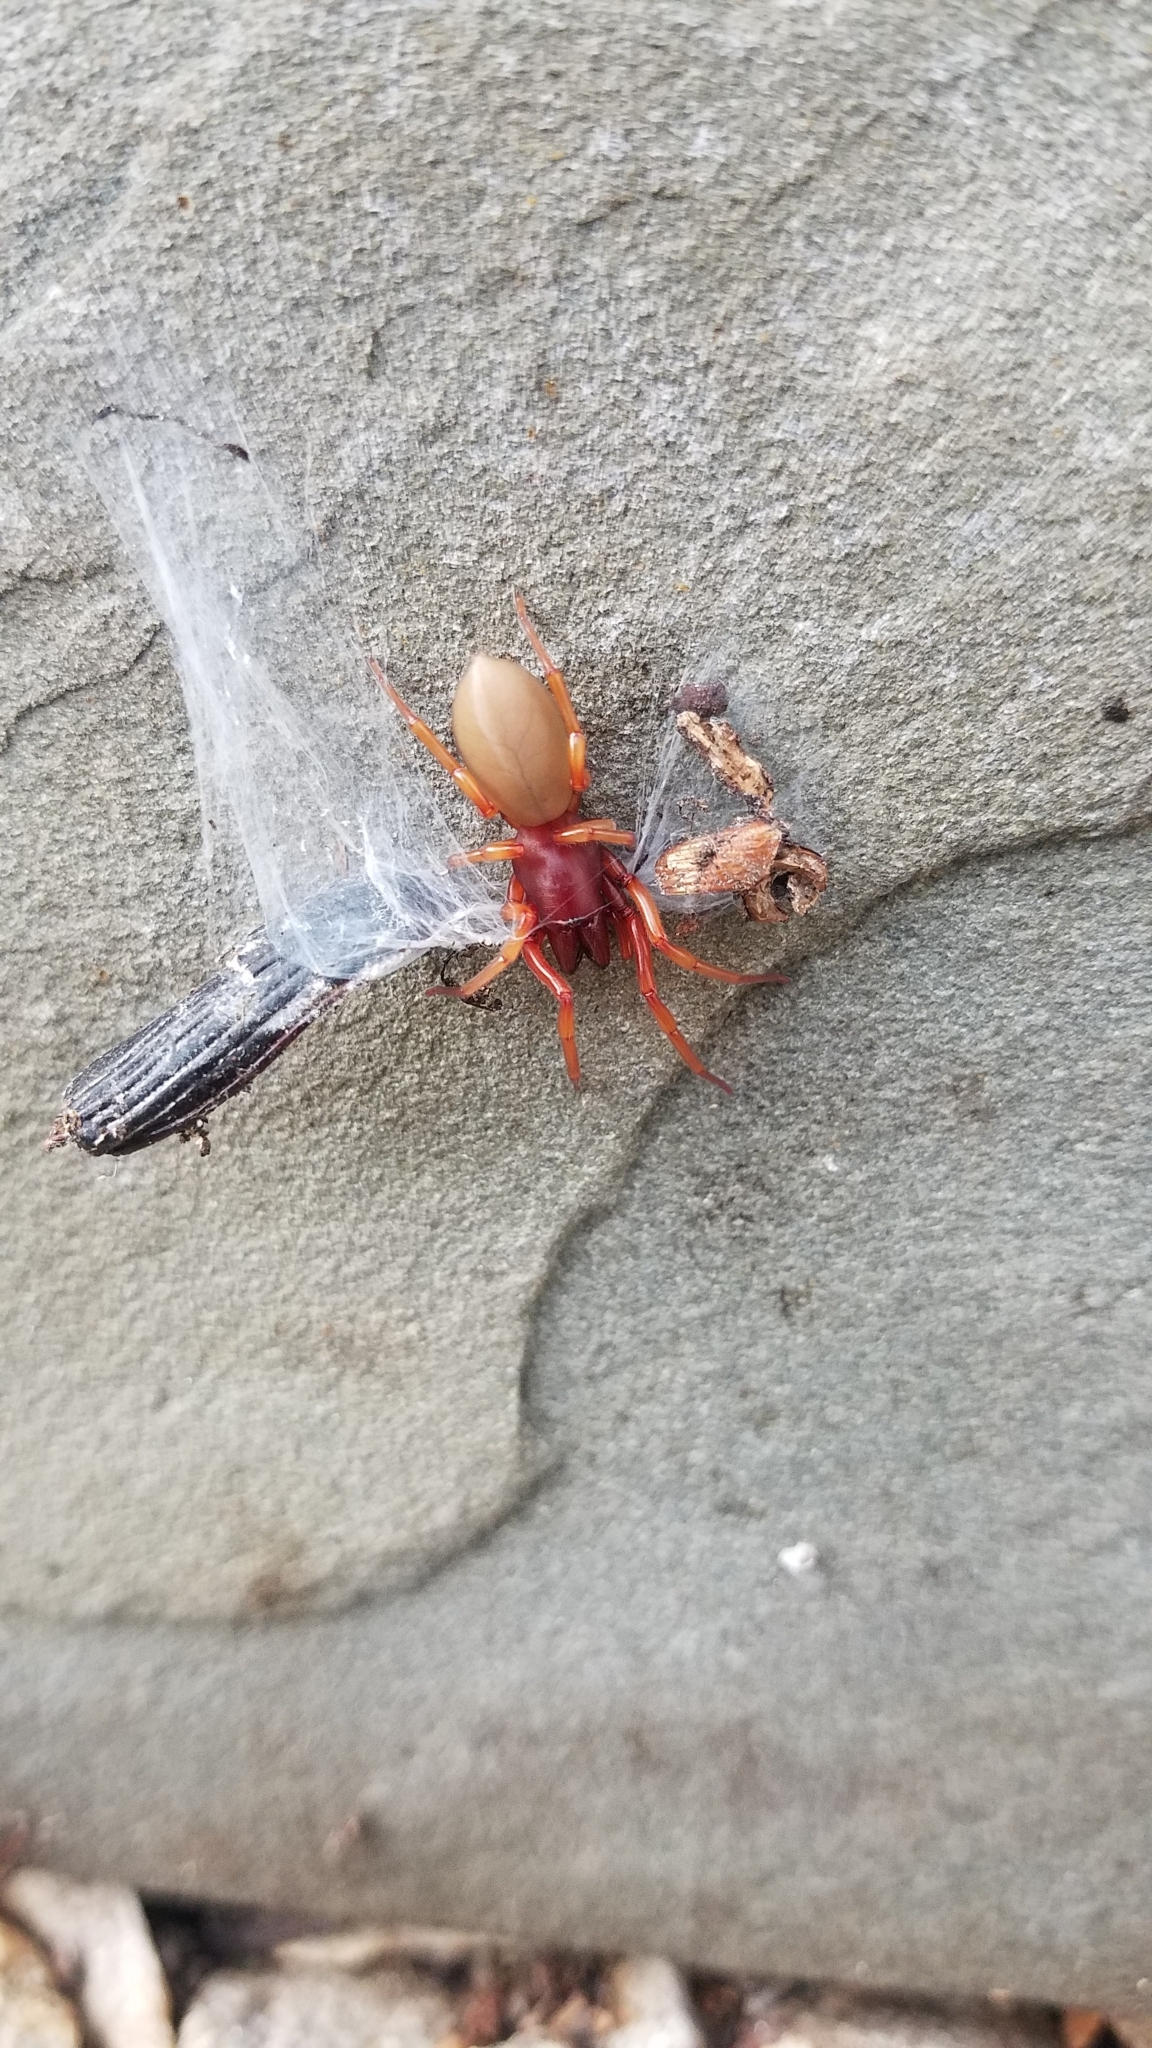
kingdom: Animalia
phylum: Arthropoda
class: Arachnida
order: Araneae
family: Dysderidae
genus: Dysdera
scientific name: Dysdera crocata
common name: Woodlouse spider
